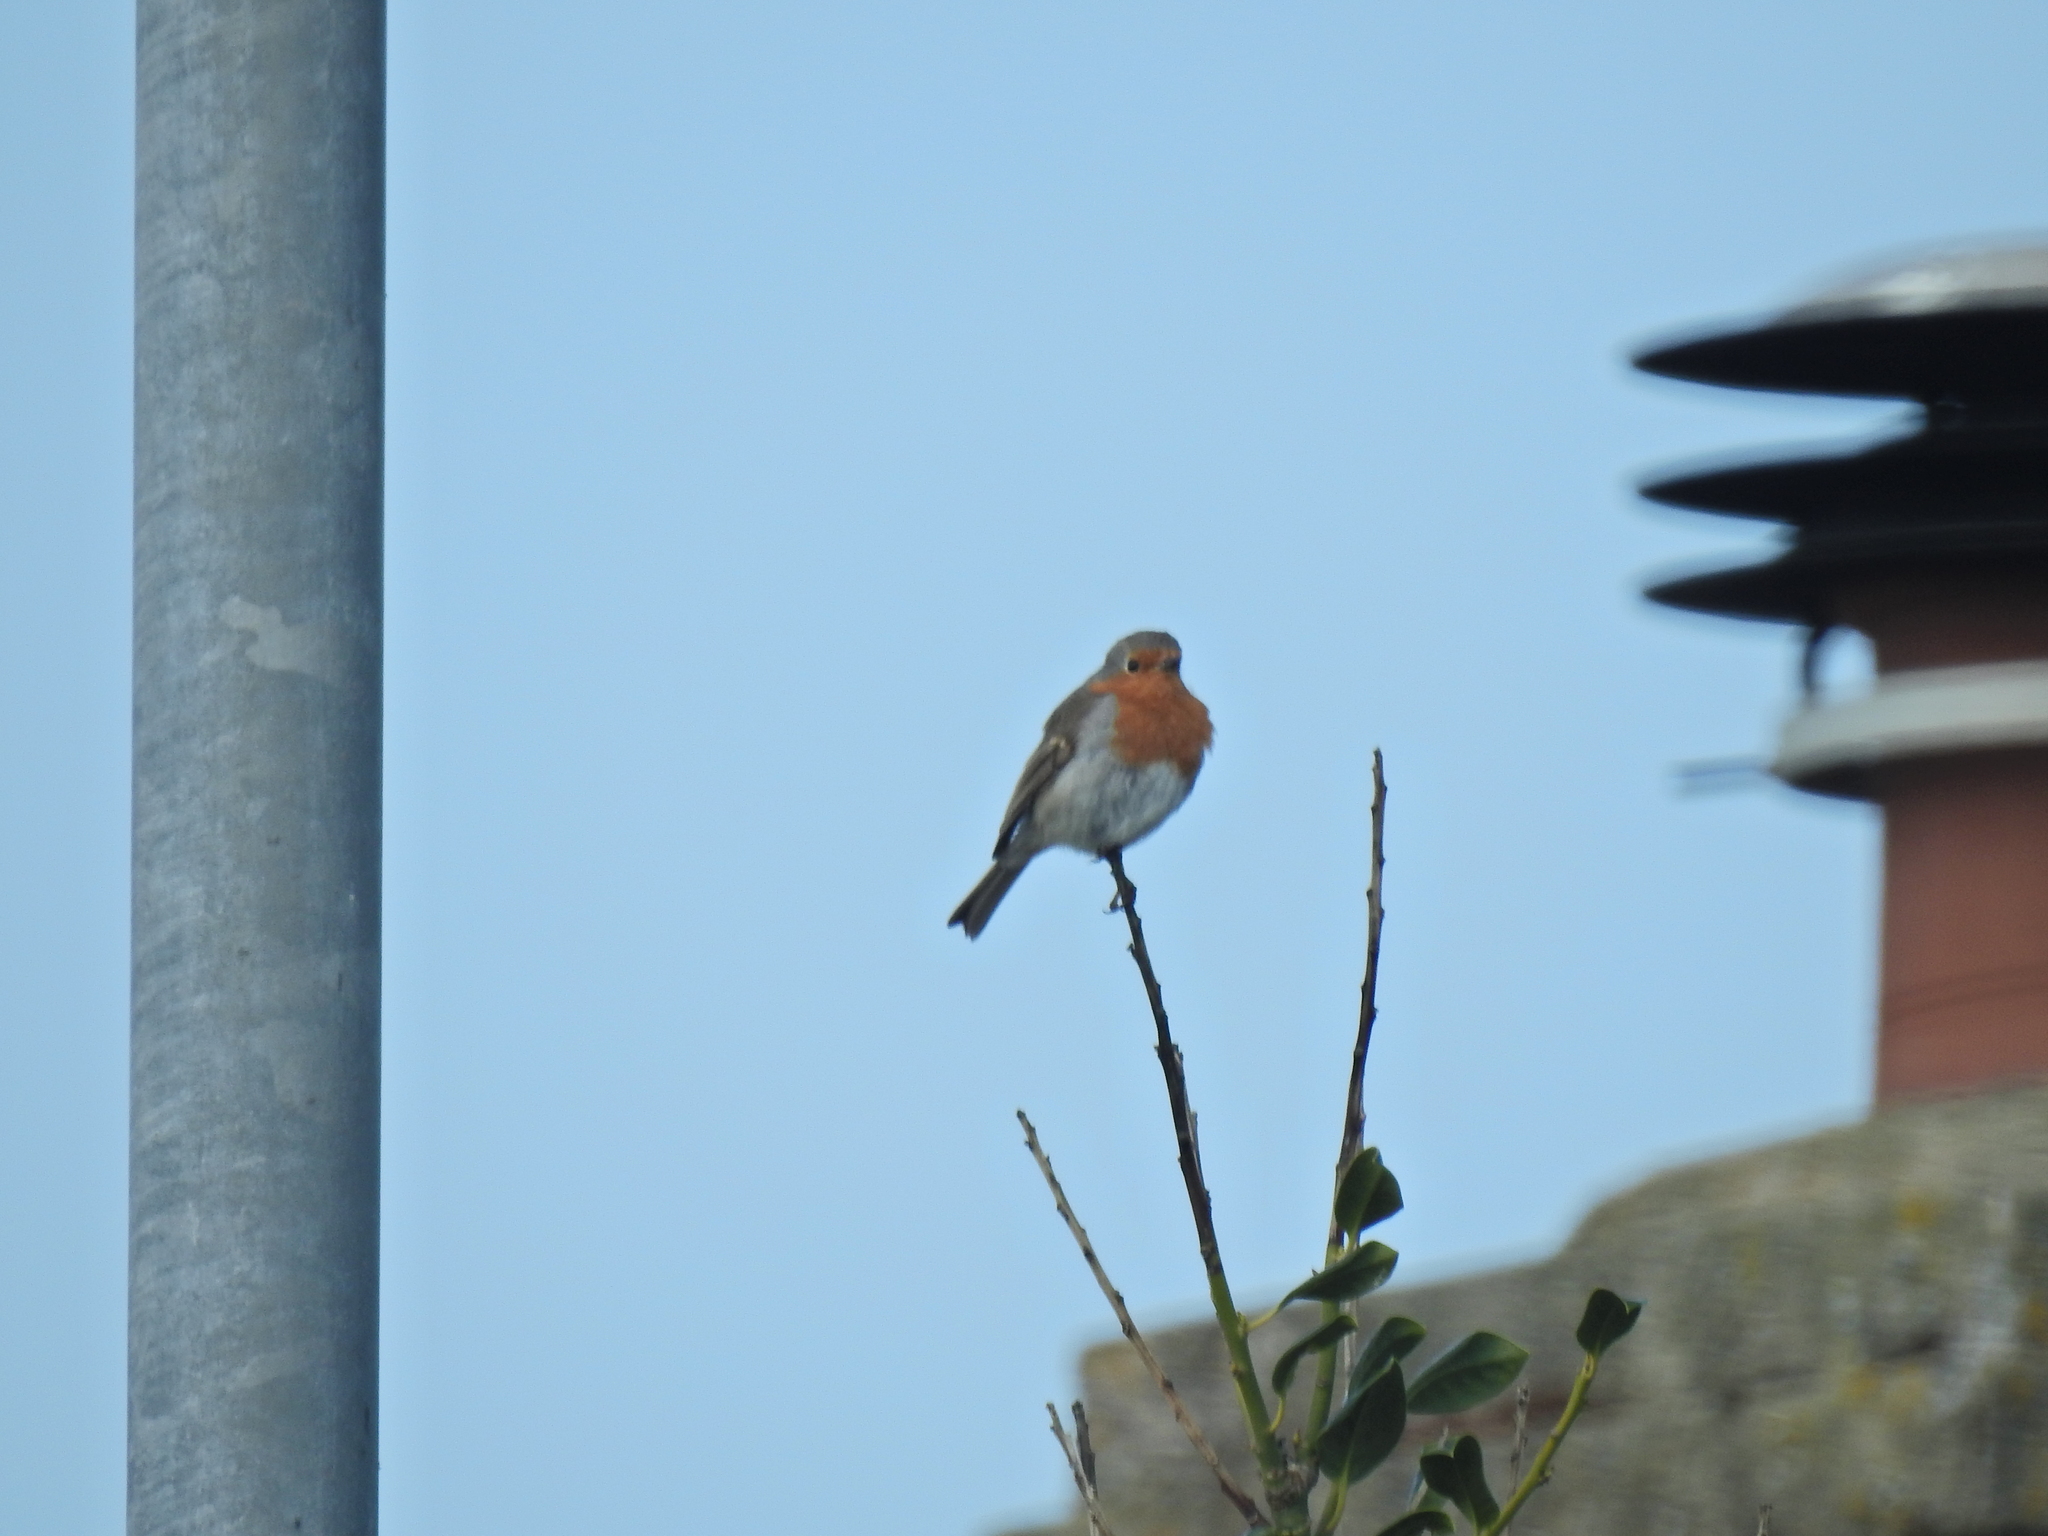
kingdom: Animalia
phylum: Chordata
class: Aves
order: Passeriformes
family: Muscicapidae
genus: Erithacus
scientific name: Erithacus rubecula
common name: European robin
